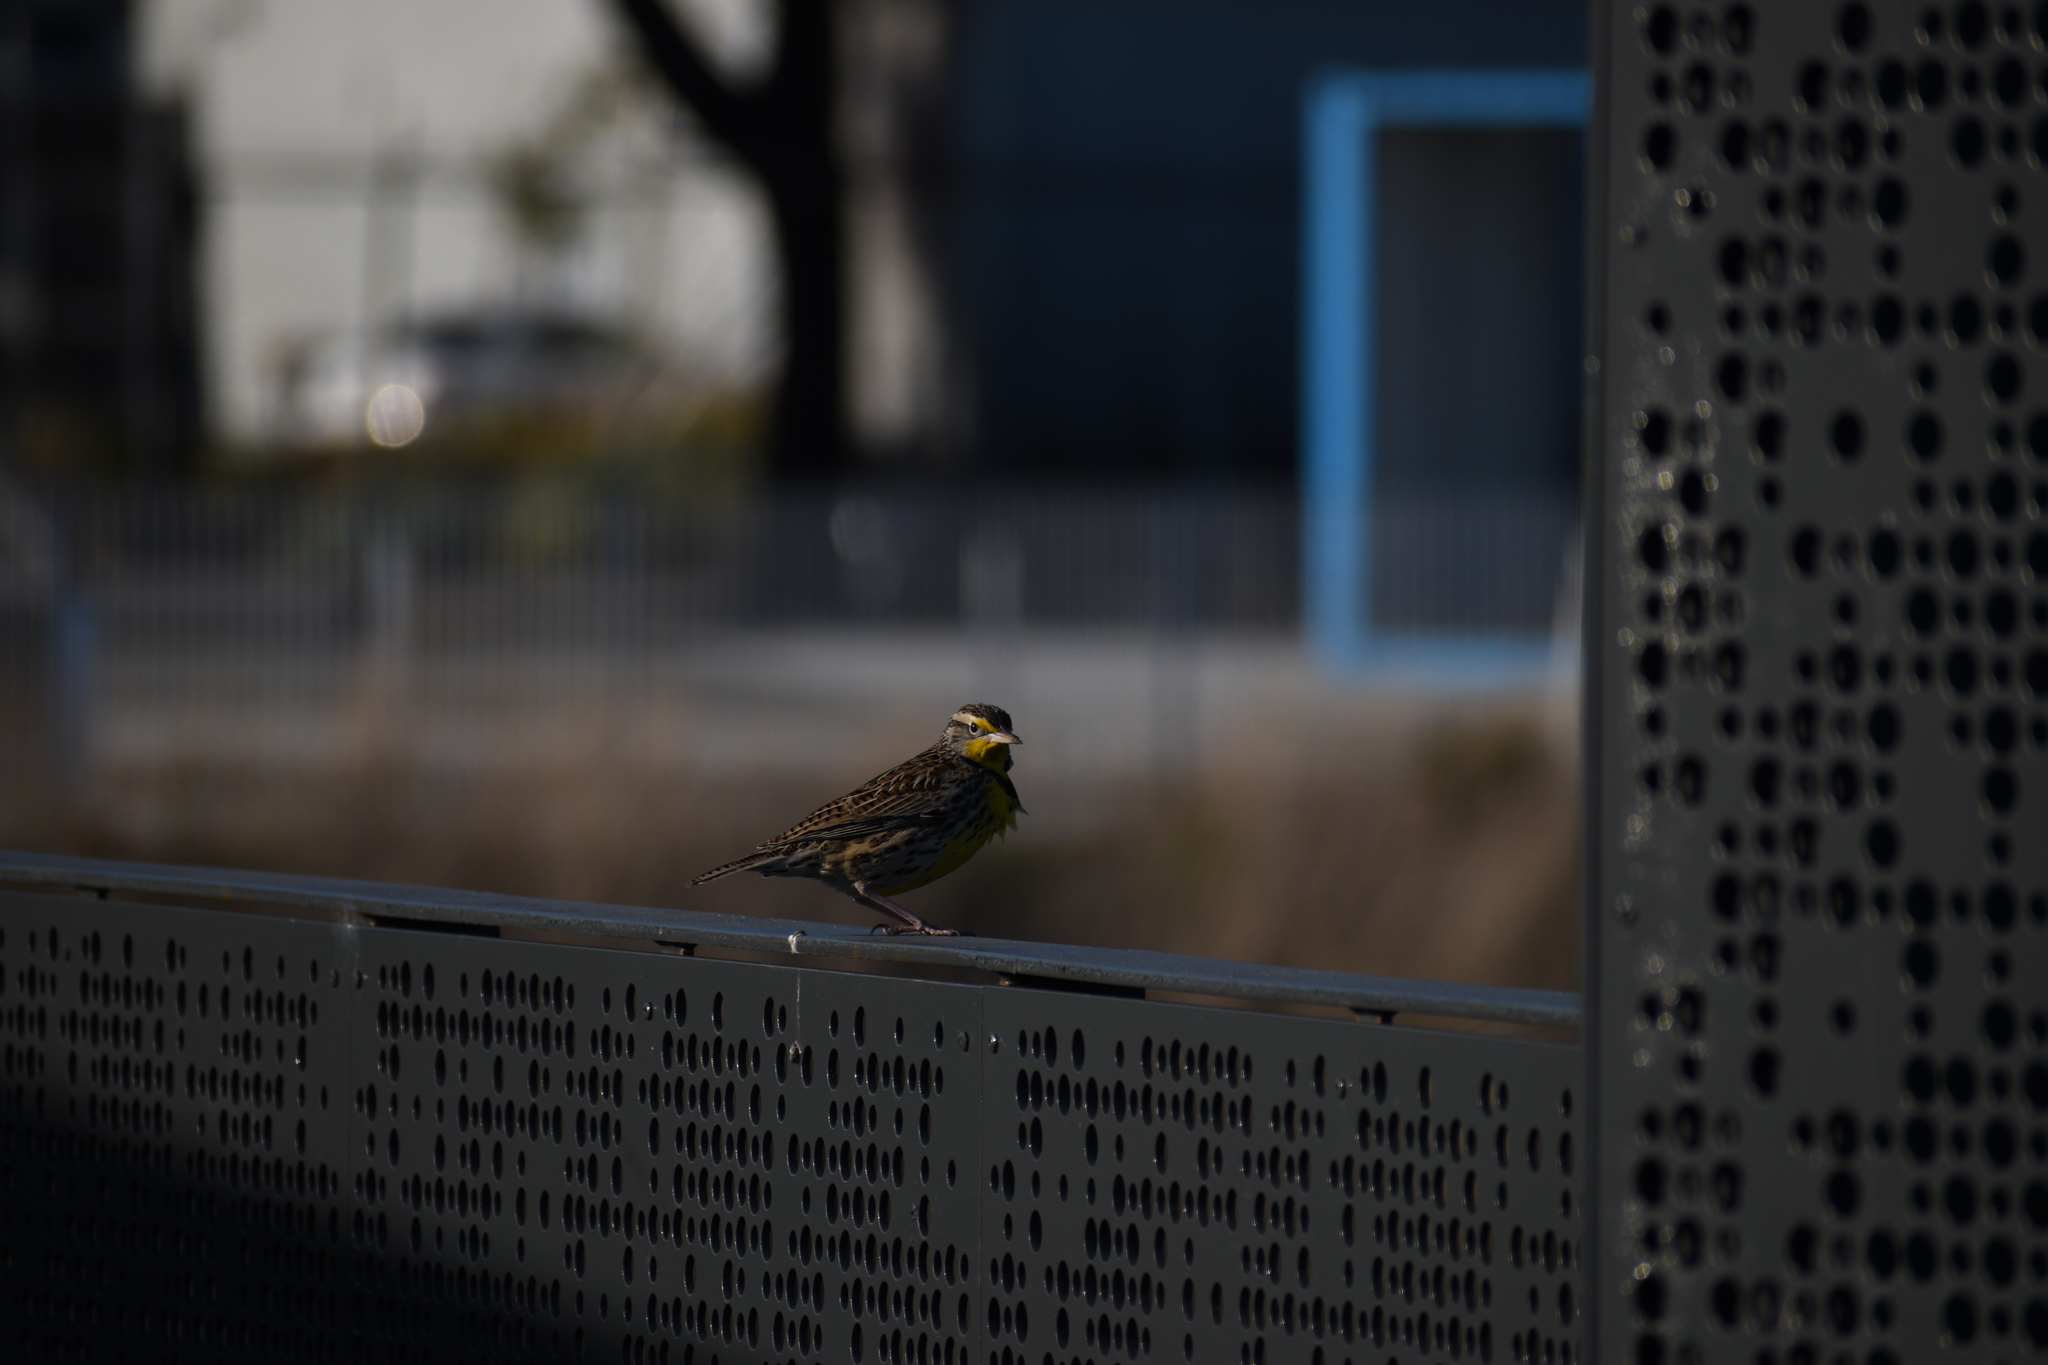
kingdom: Animalia
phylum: Chordata
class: Aves
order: Passeriformes
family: Icteridae
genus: Sturnella
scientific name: Sturnella neglecta
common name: Western meadowlark
